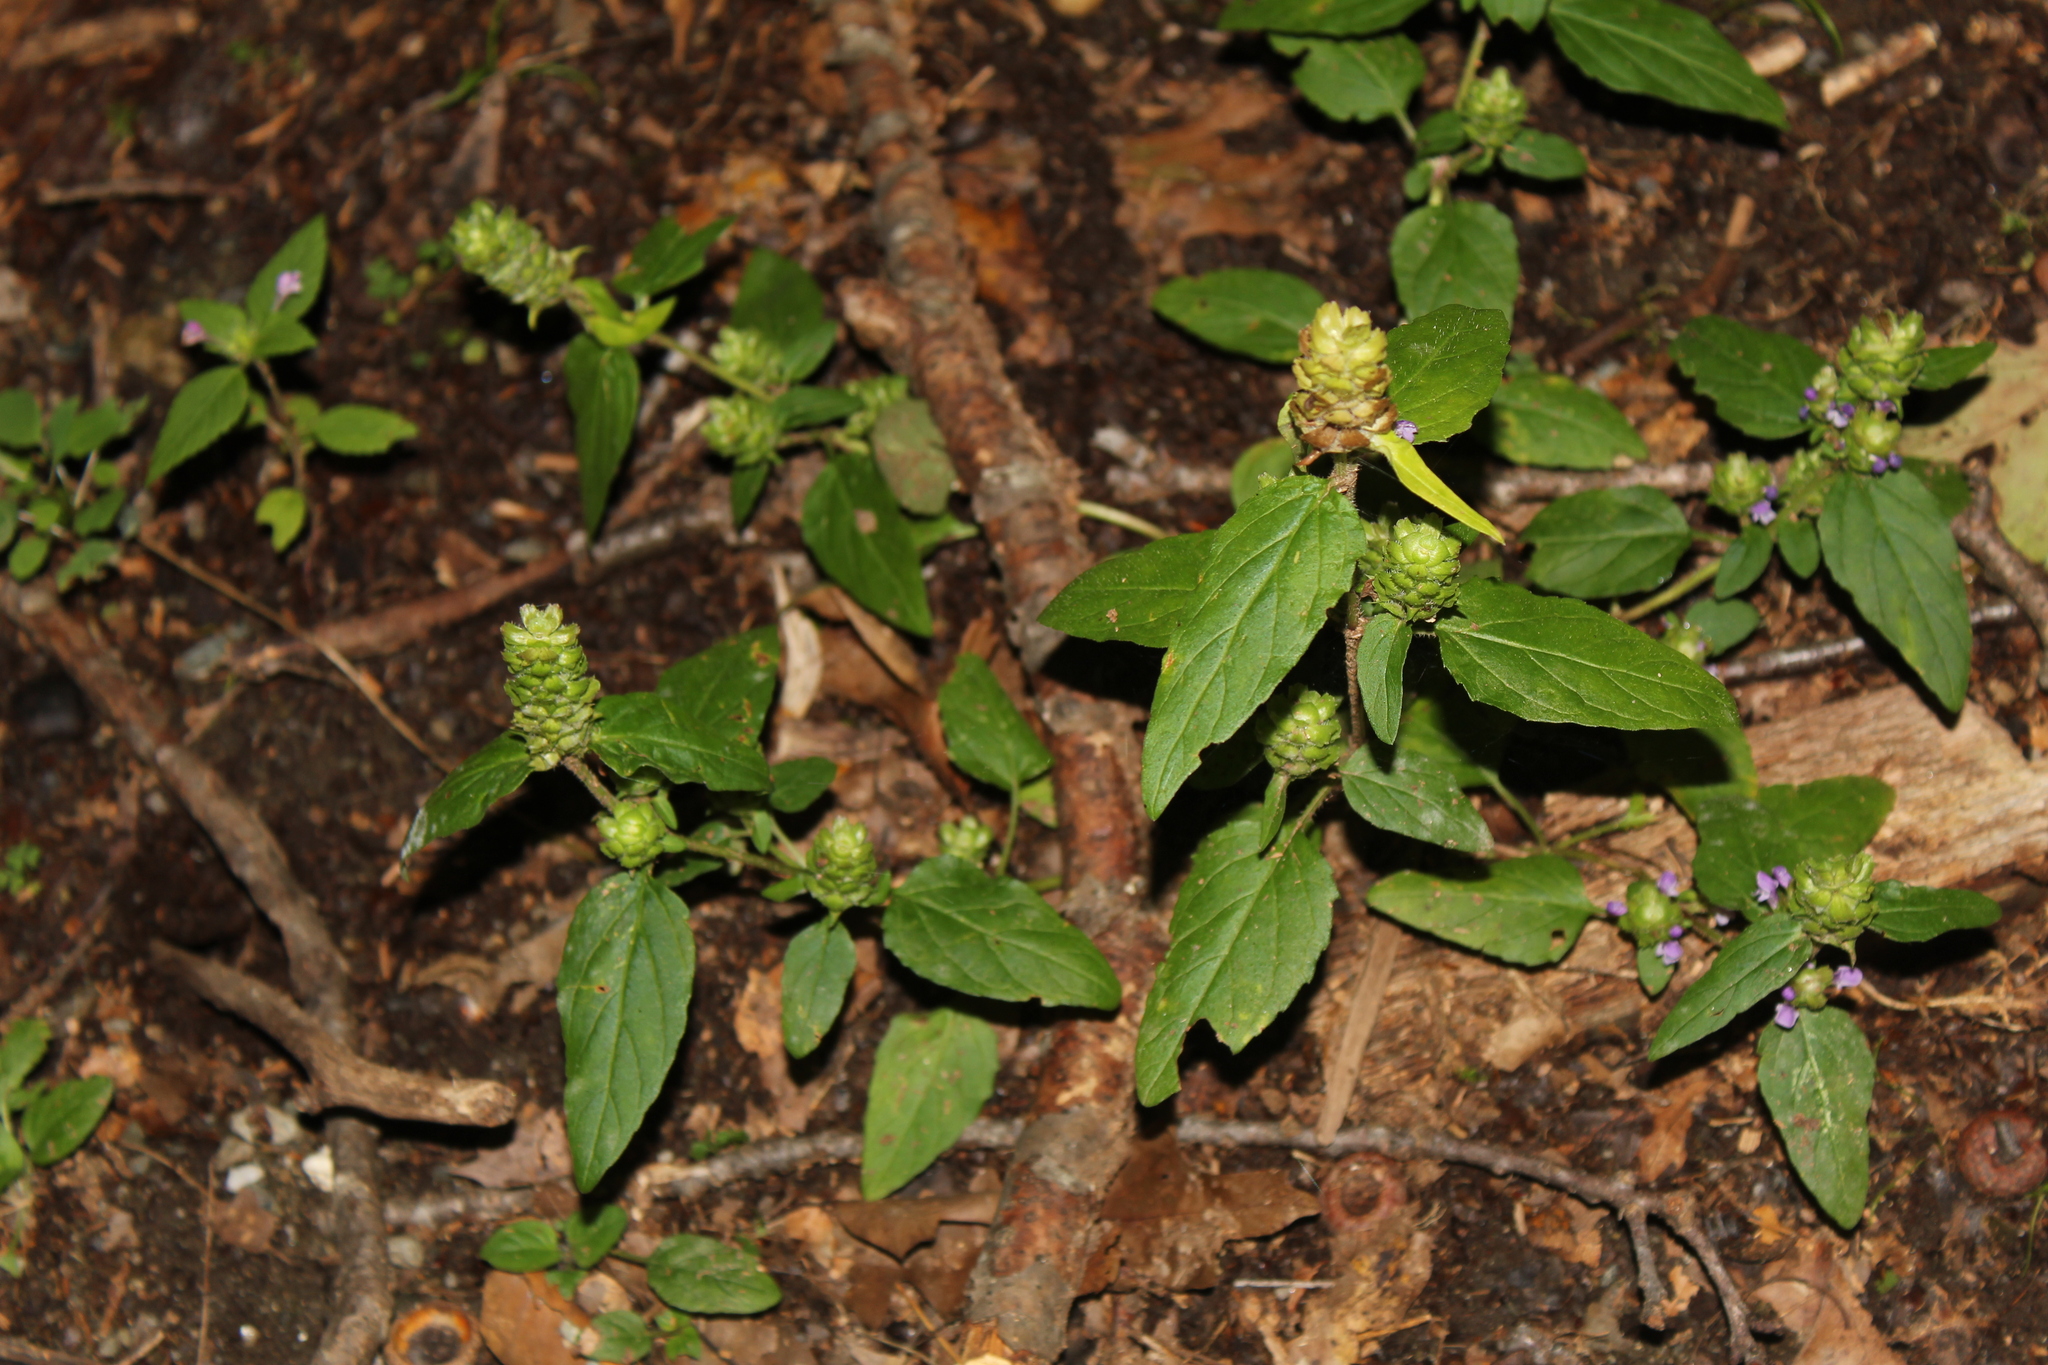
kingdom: Plantae
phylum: Tracheophyta
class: Magnoliopsida
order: Lamiales
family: Lamiaceae
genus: Prunella
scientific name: Prunella vulgaris
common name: Heal-all
